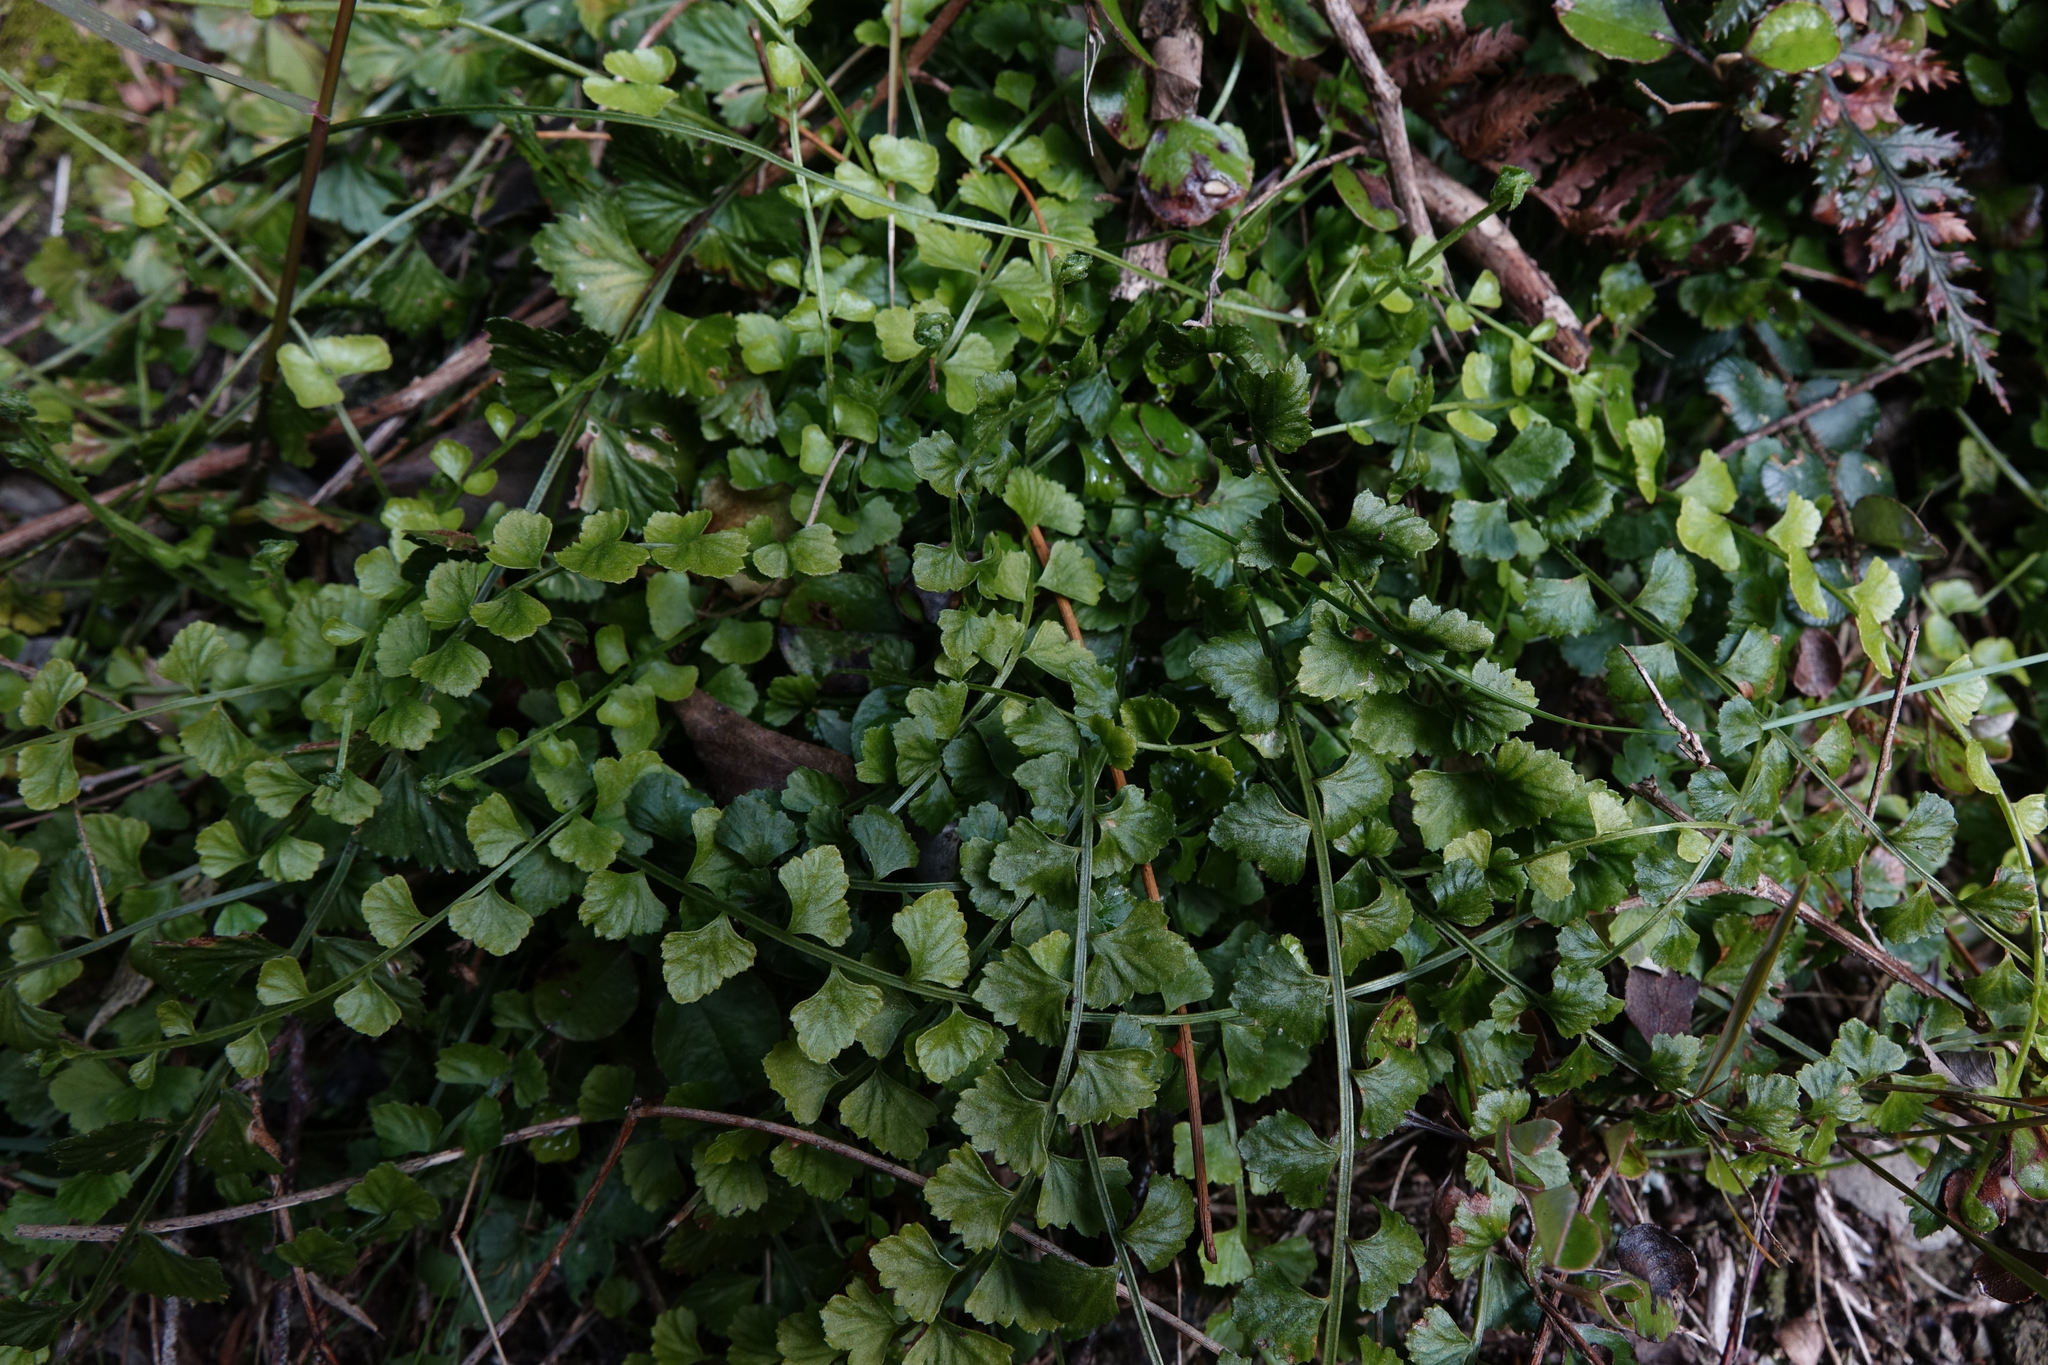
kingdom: Plantae
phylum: Tracheophyta
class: Polypodiopsida
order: Polypodiales
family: Aspleniaceae
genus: Asplenium
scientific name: Asplenium flabellifolium
